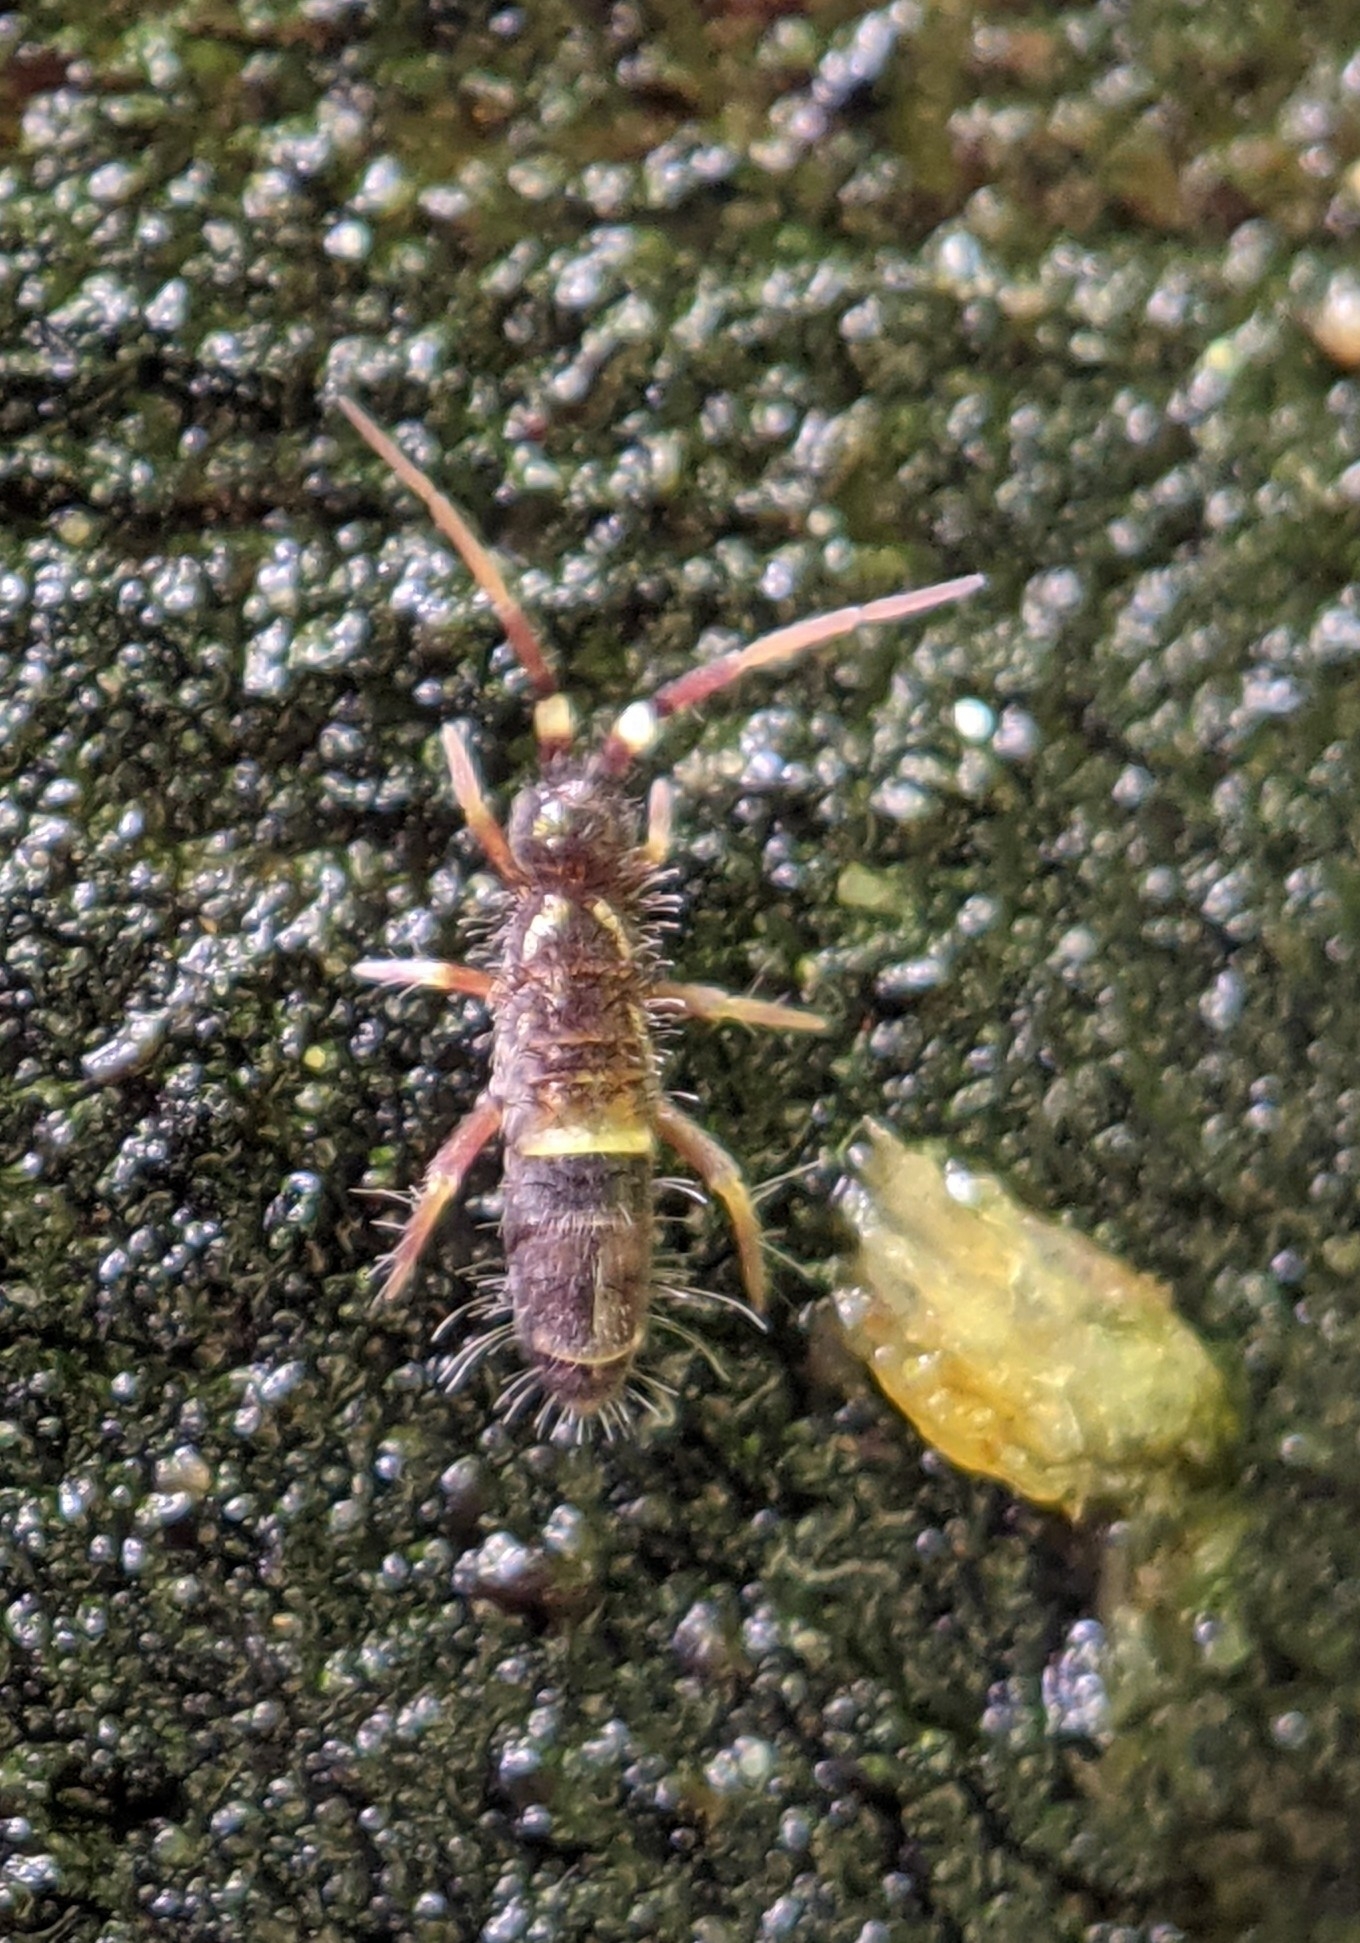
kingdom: Animalia
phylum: Arthropoda
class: Collembola
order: Entomobryomorpha
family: Orchesellidae
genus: Orchesella
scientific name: Orchesella cincta
